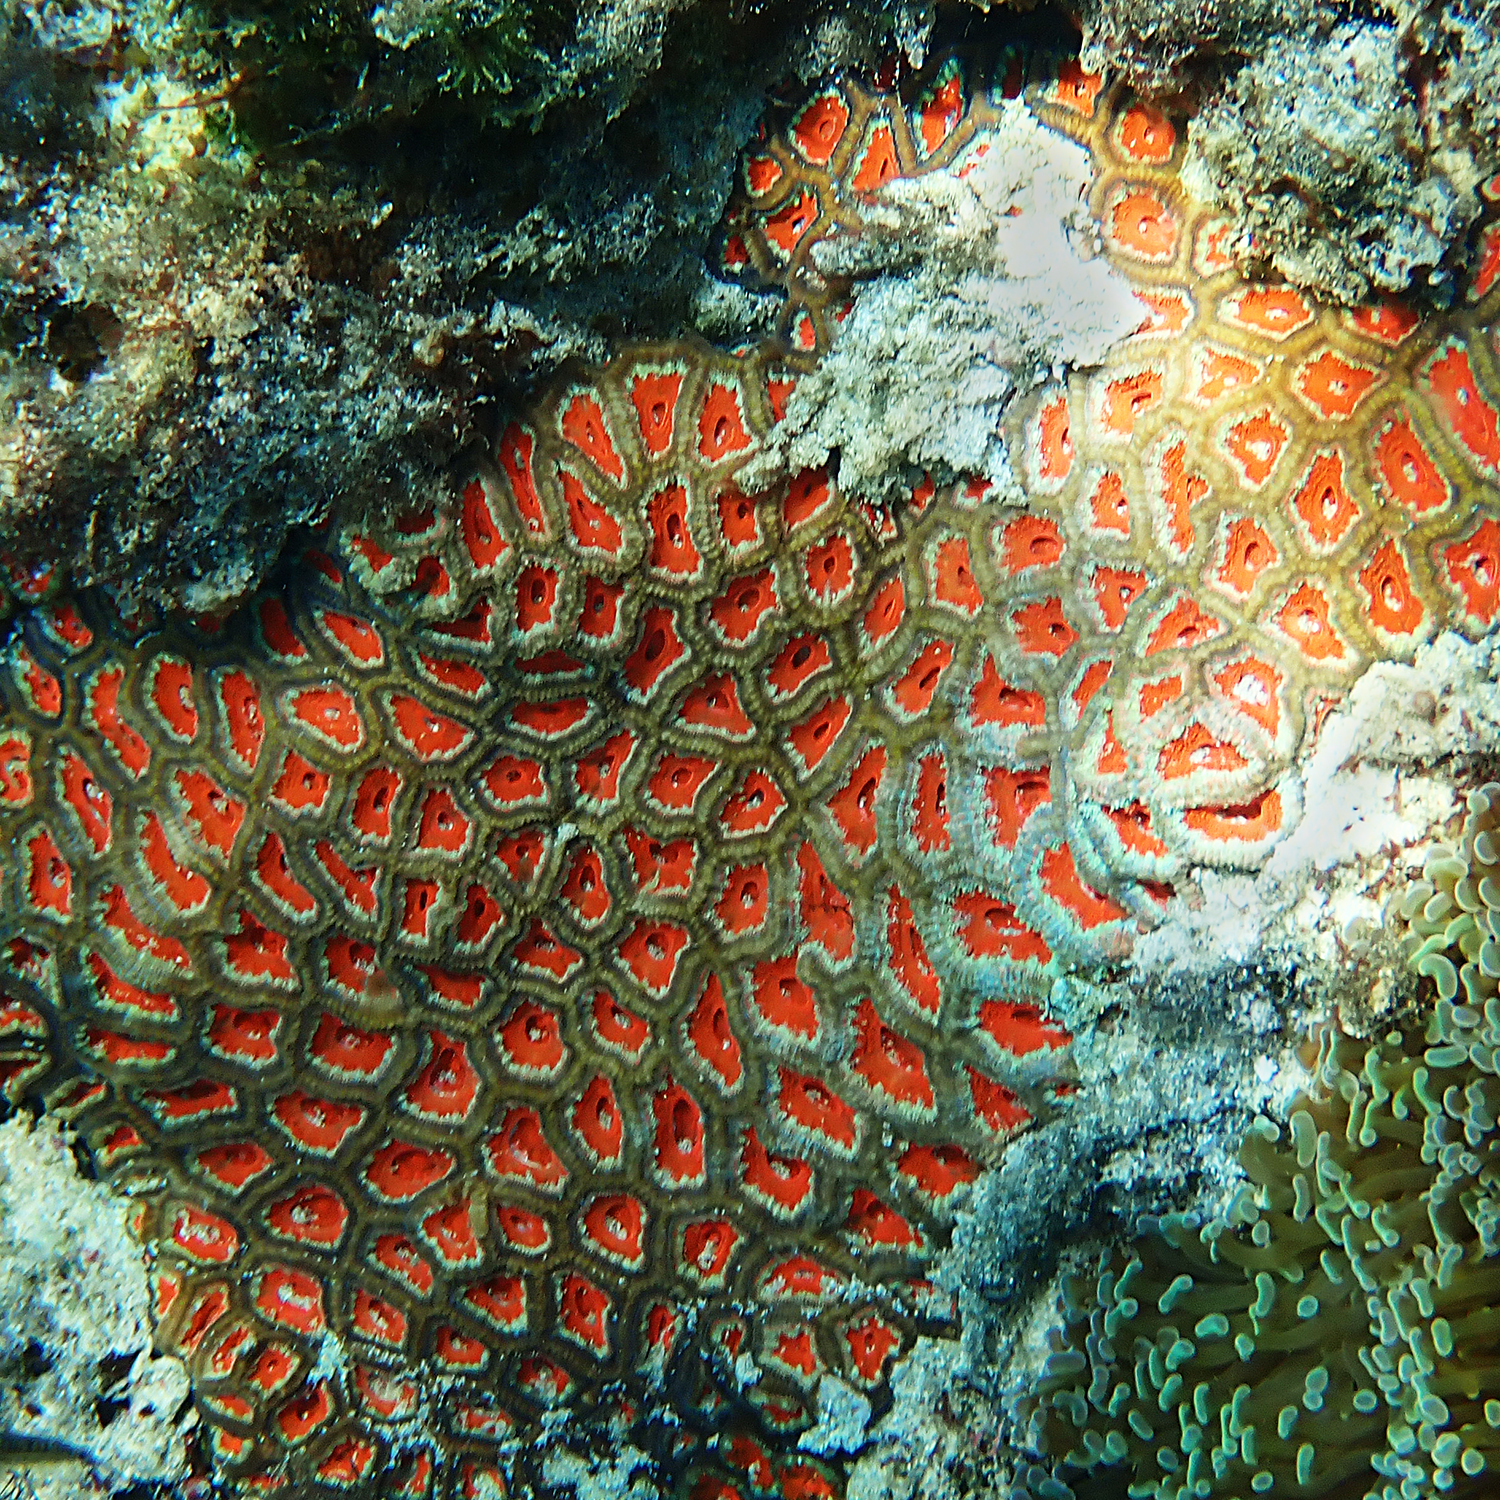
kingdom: Animalia
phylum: Cnidaria
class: Anthozoa
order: Scleractinia
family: Lobophylliidae
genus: Micromussa
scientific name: Micromussa lordhowensis
